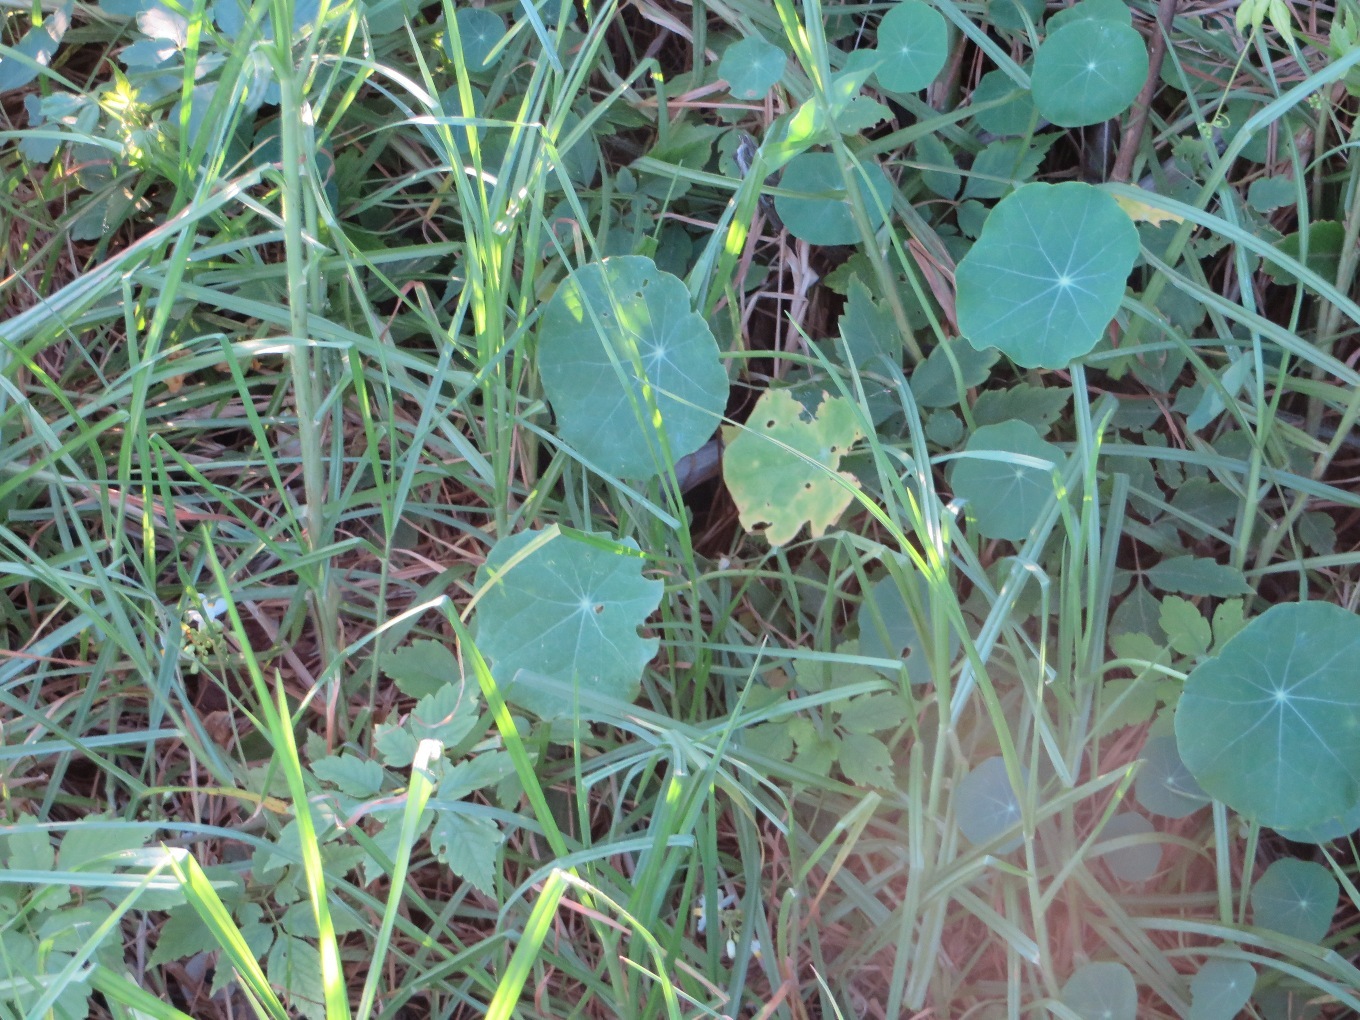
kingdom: Plantae
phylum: Tracheophyta
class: Magnoliopsida
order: Brassicales
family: Tropaeolaceae
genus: Tropaeolum
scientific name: Tropaeolum majus
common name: Nasturtium
